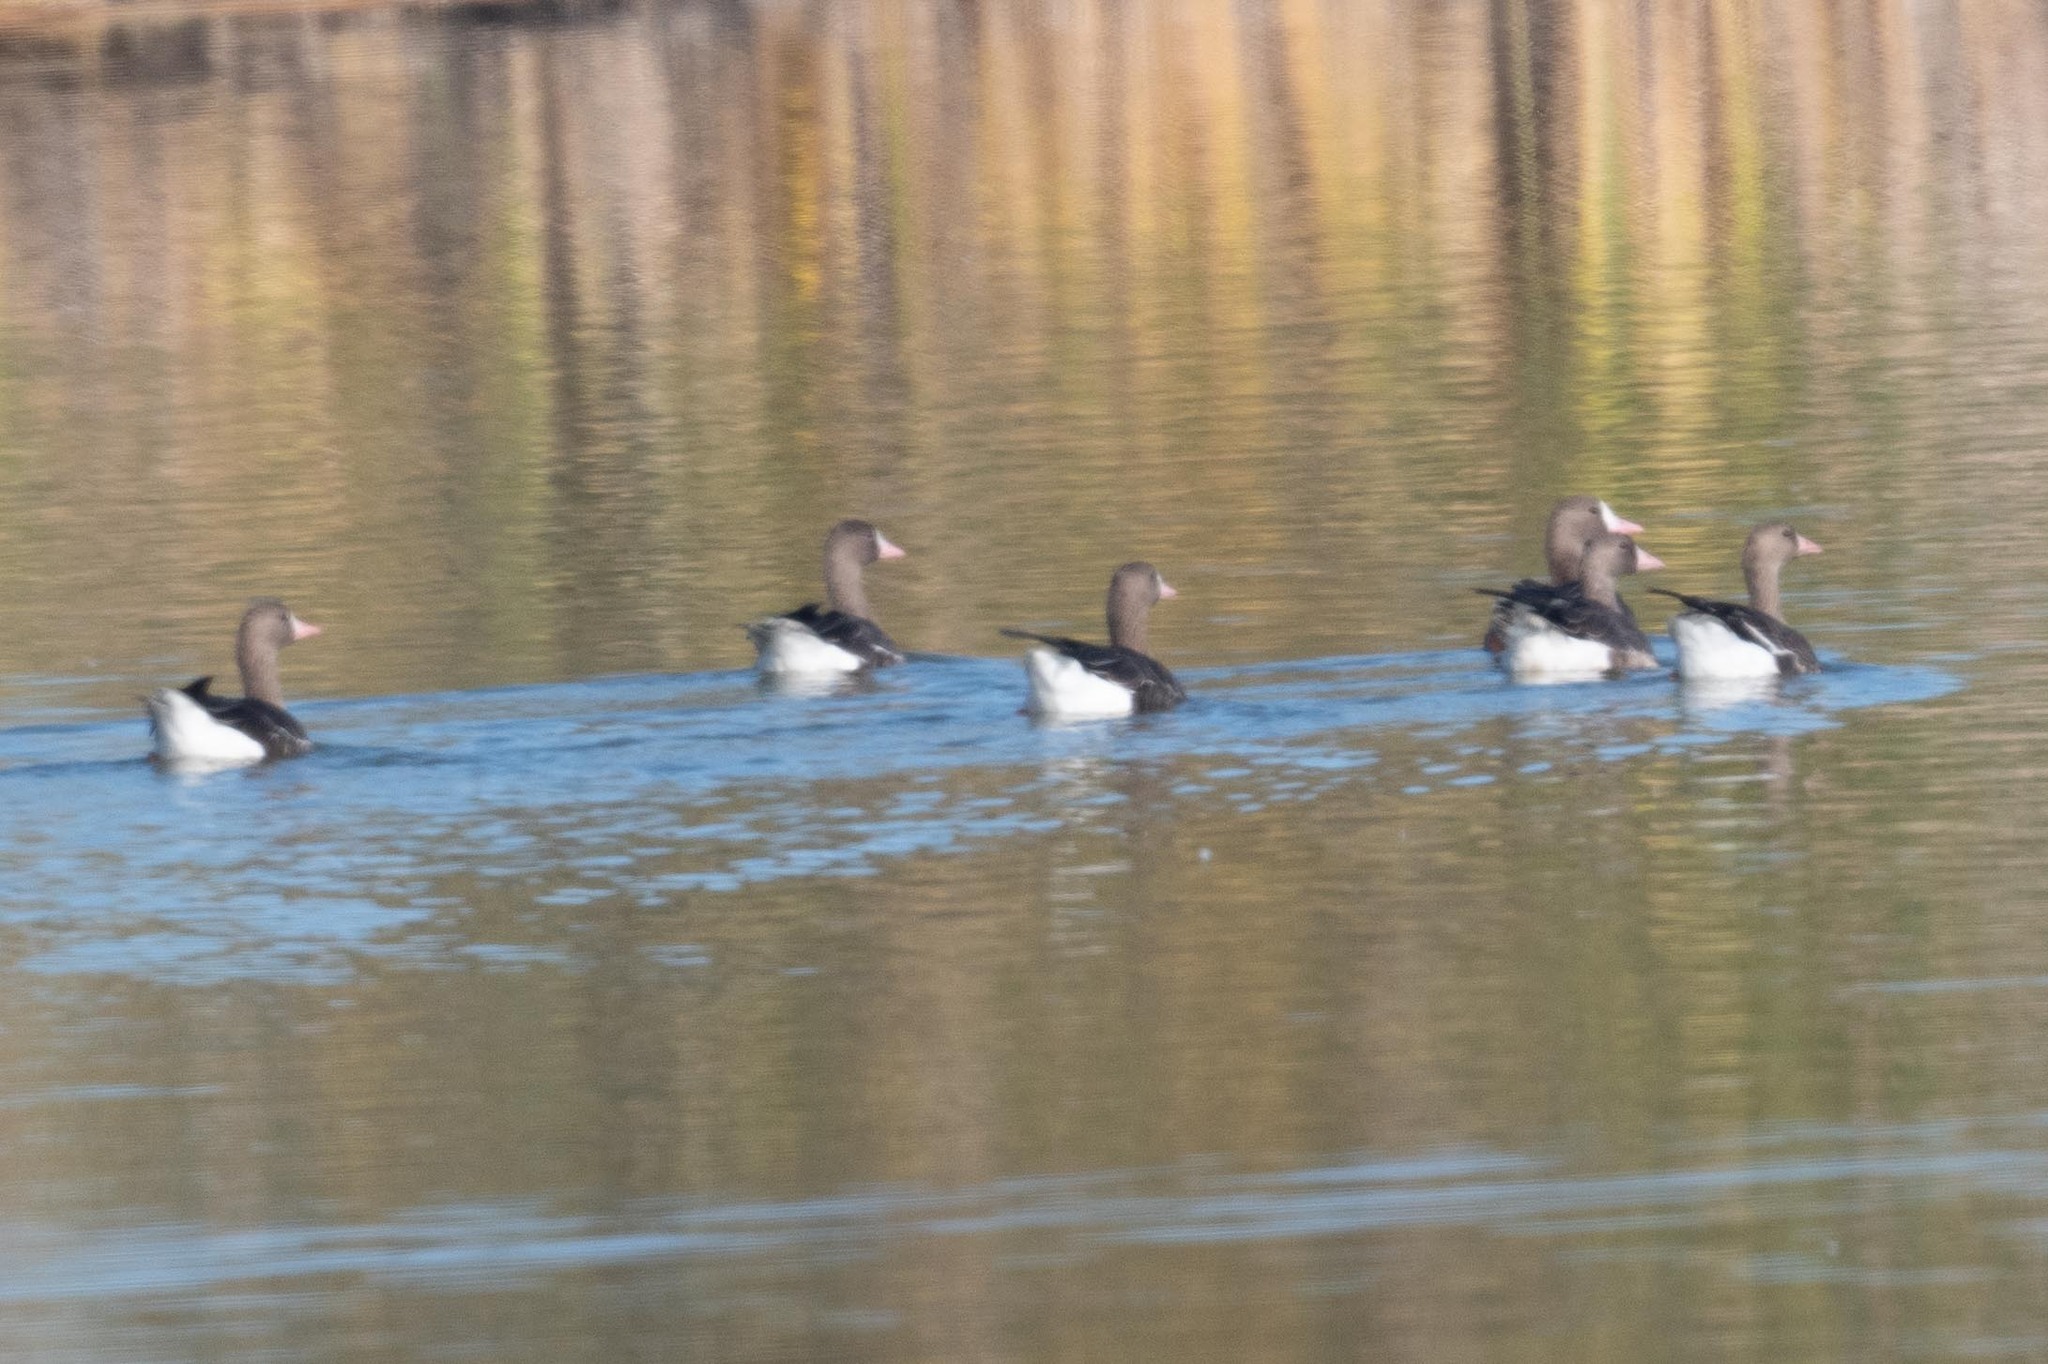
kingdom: Animalia
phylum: Chordata
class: Aves
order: Anseriformes
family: Anatidae
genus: Anser
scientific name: Anser albifrons
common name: Greater white-fronted goose
